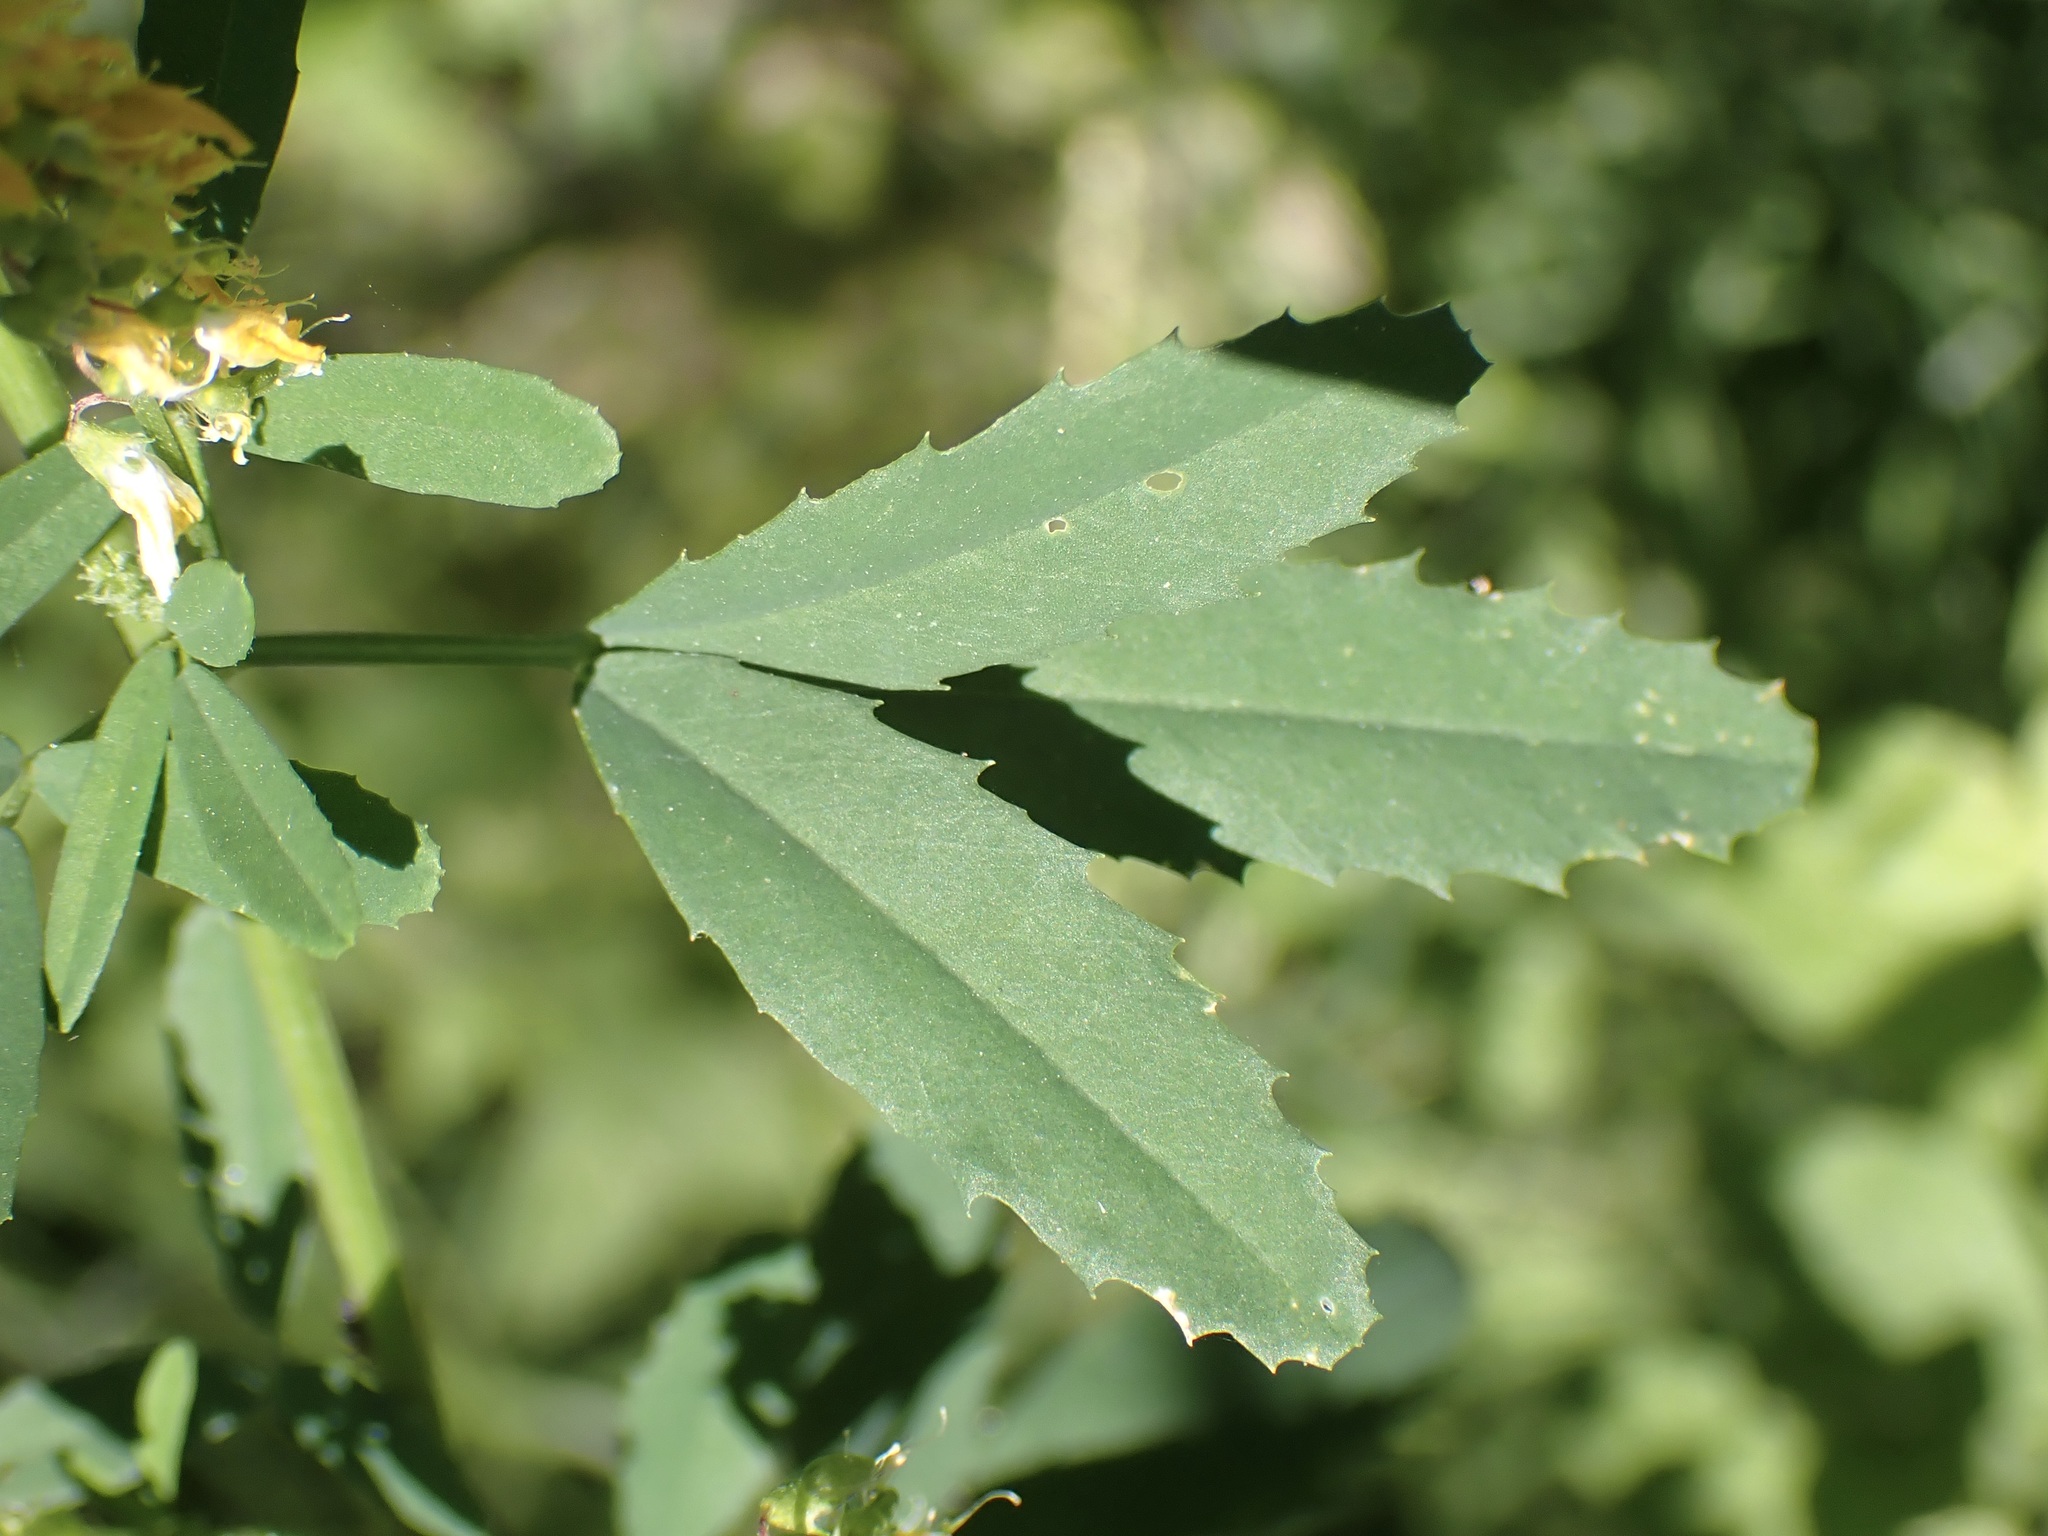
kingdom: Plantae
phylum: Tracheophyta
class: Magnoliopsida
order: Fabales
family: Fabaceae
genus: Melilotus
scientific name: Melilotus officinalis
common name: Sweetclover
